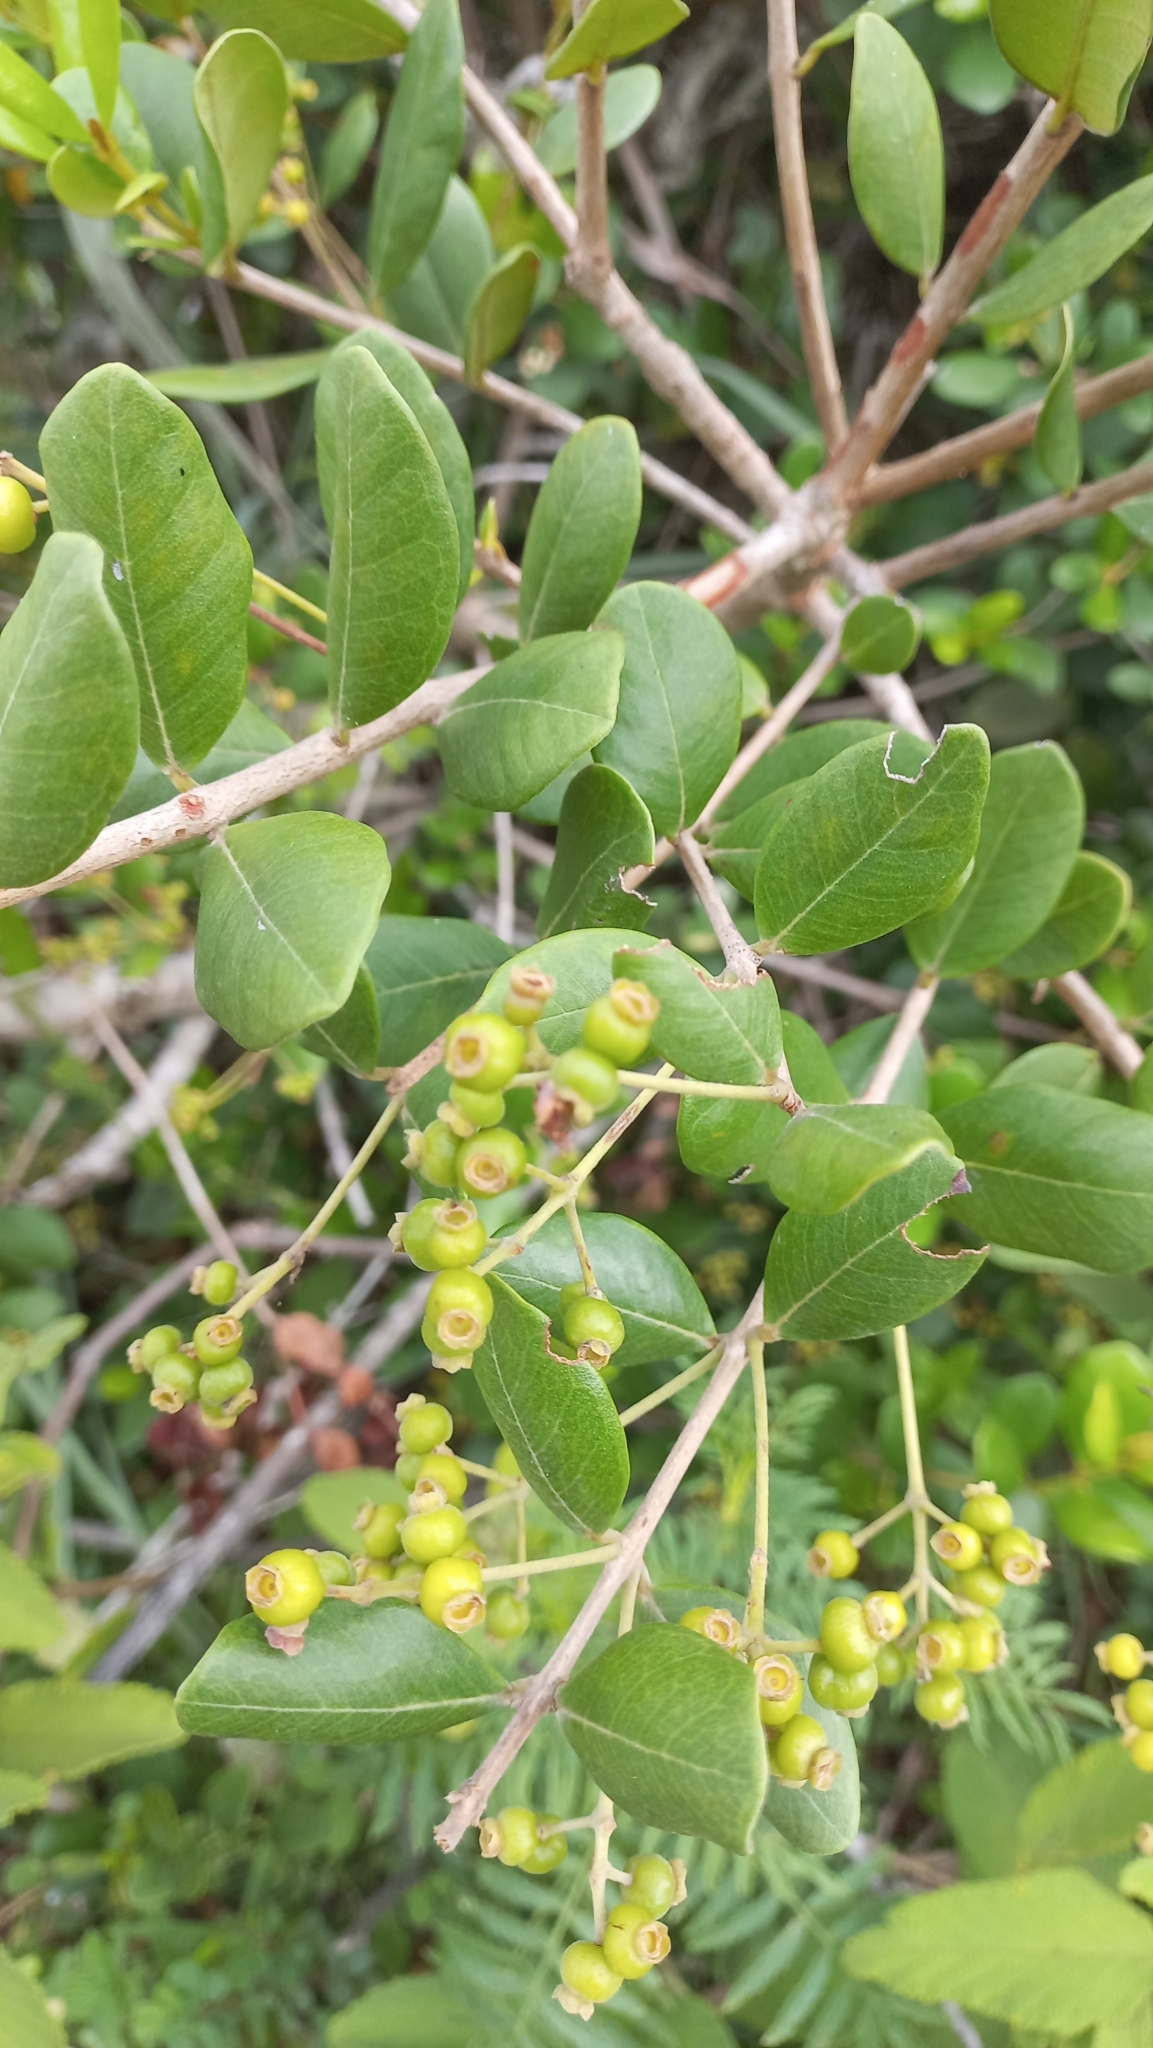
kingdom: Plantae
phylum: Tracheophyta
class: Magnoliopsida
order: Myrtales
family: Myrtaceae
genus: Myrcia
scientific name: Myrcia palustris
